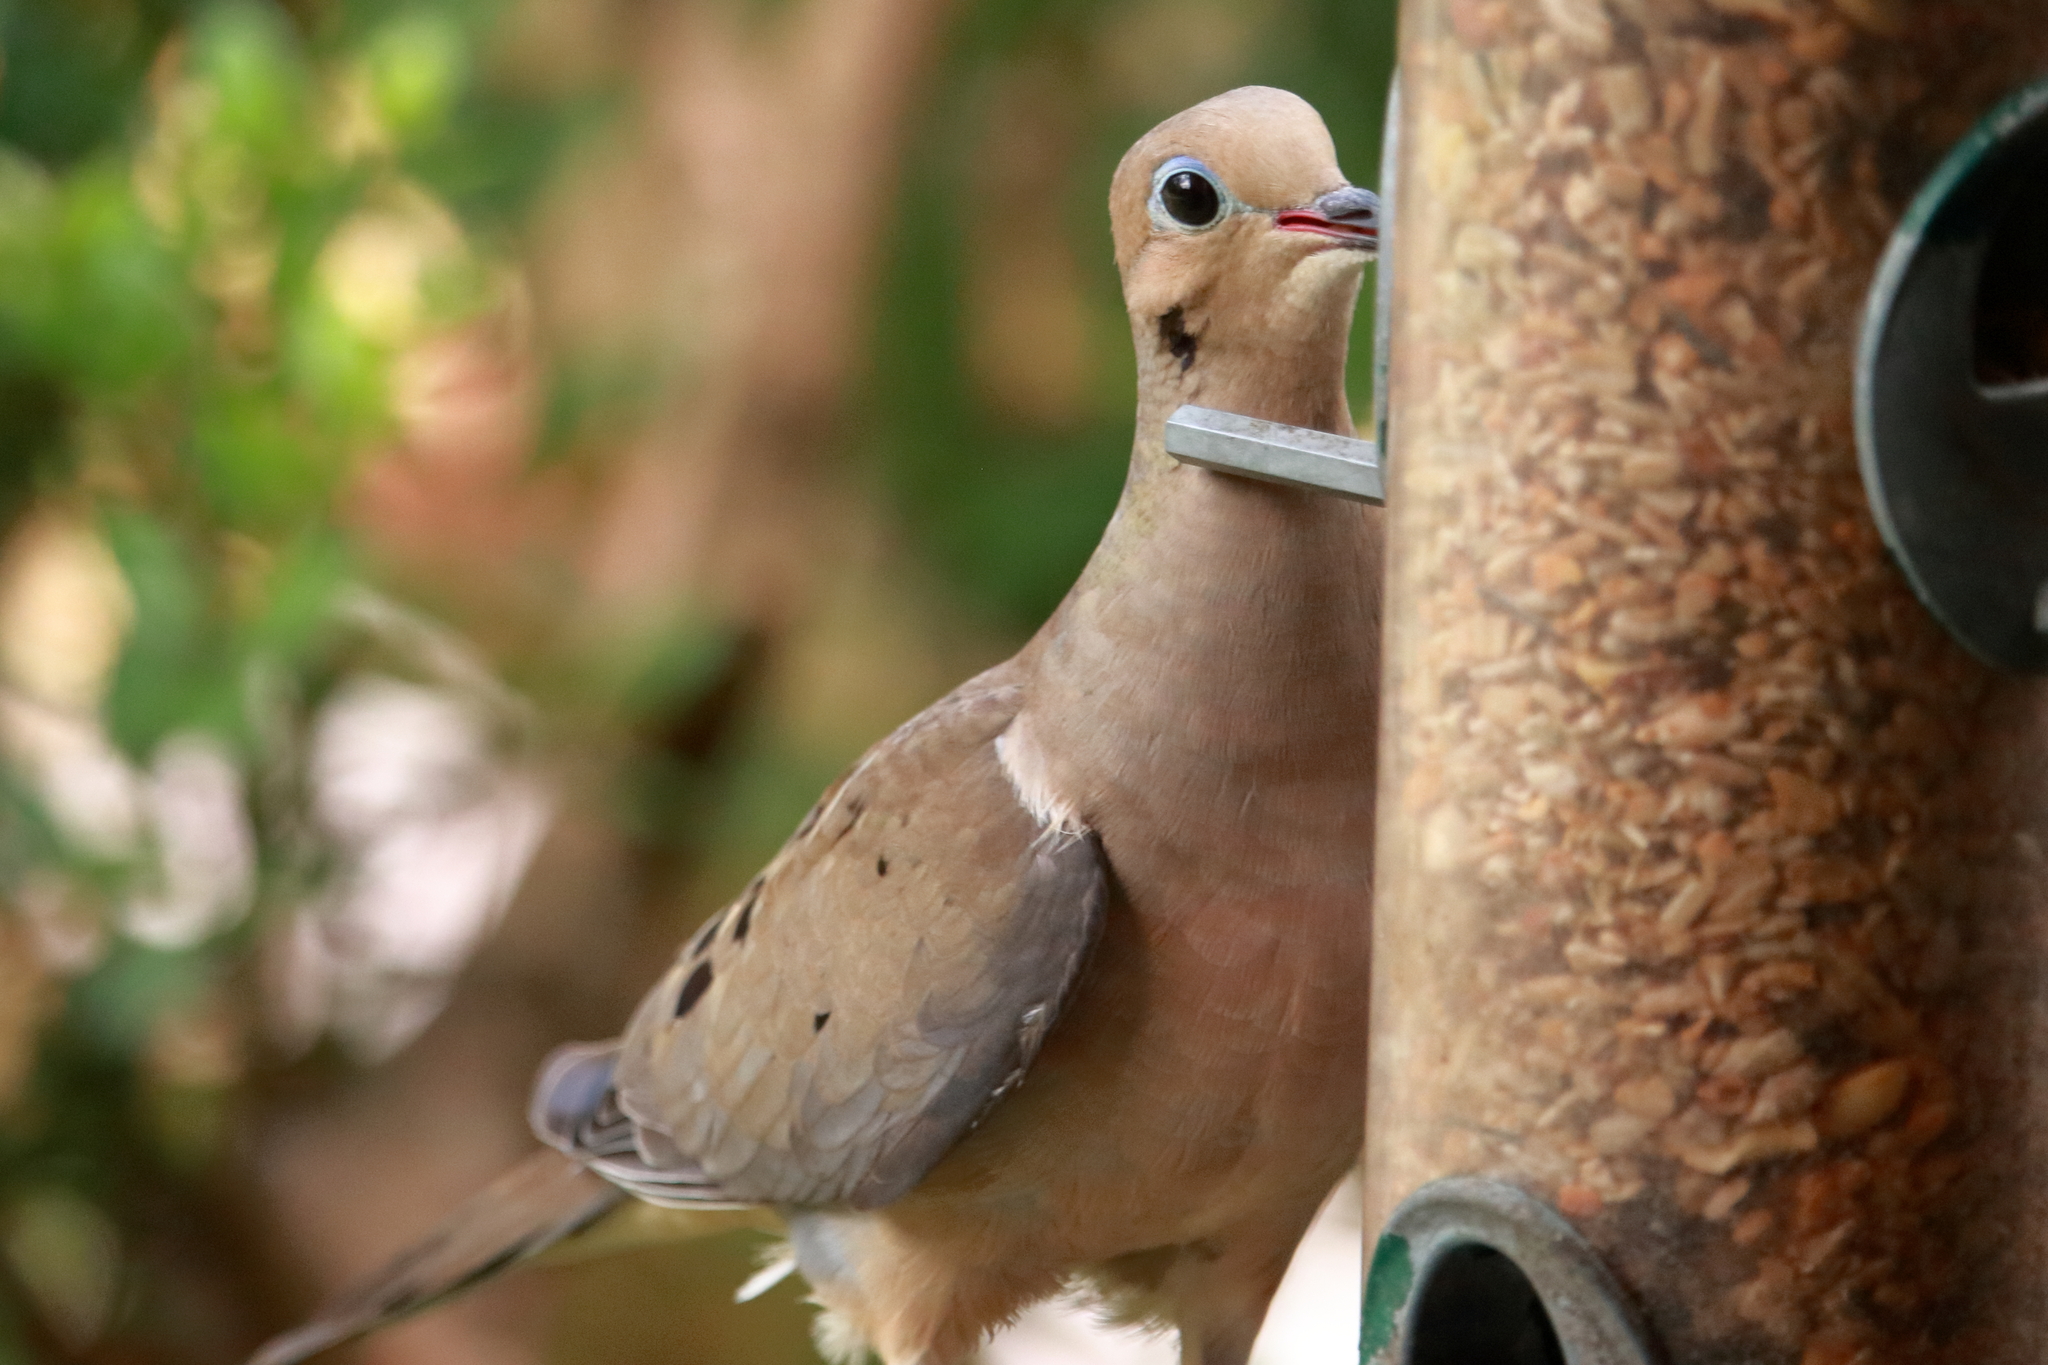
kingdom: Animalia
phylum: Chordata
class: Aves
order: Columbiformes
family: Columbidae
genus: Zenaida
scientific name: Zenaida macroura
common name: Mourning dove
